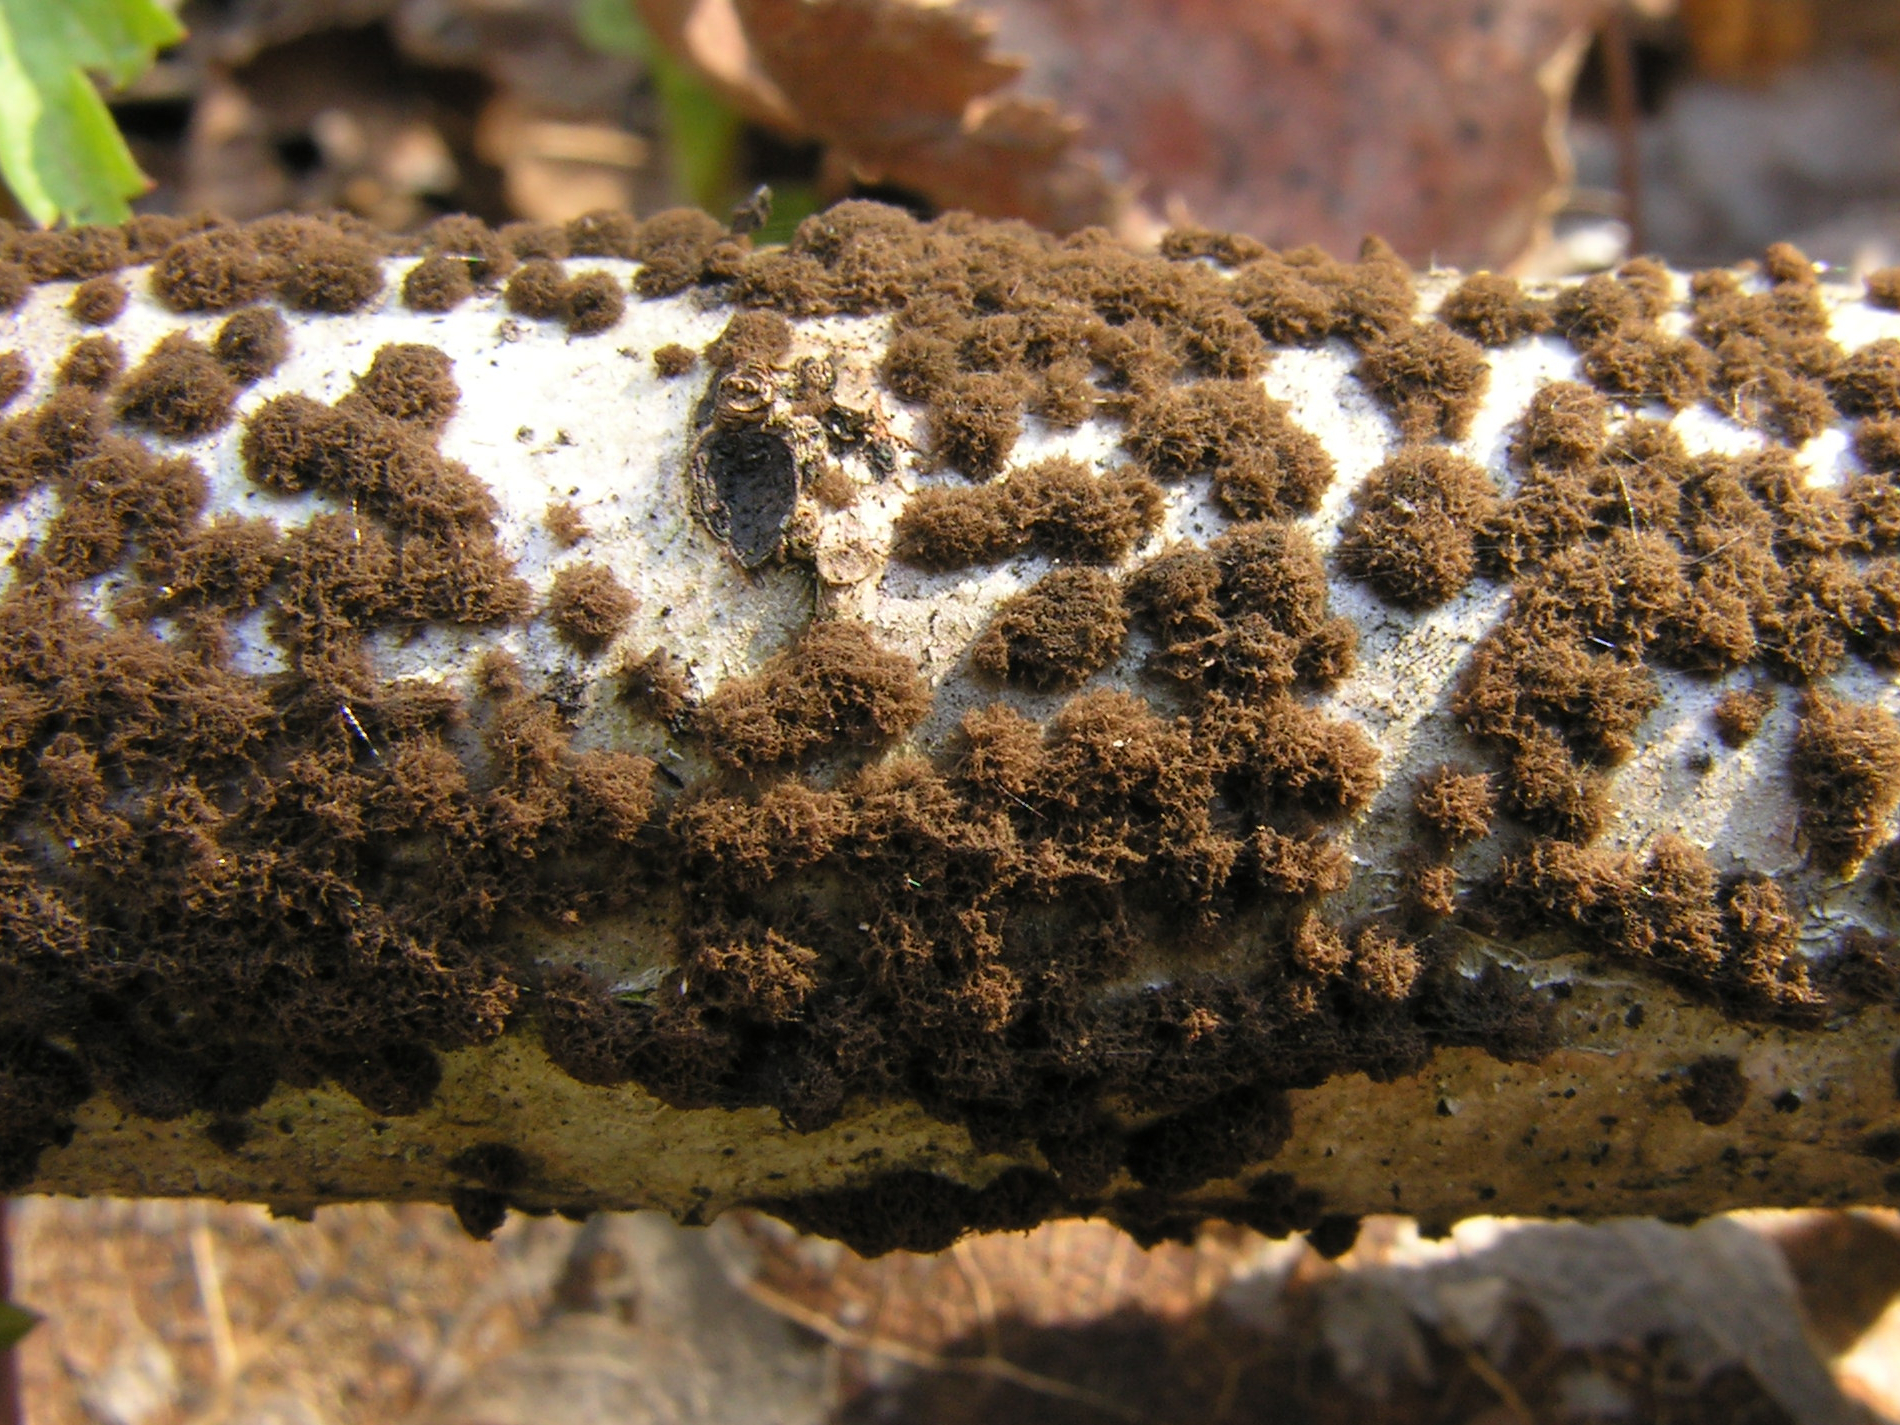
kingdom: Fungi
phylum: Ascomycota
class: Pezizomycetes
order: Pezizales
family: Sarcosomataceae
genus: Conoplea
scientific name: Conoplea olivacea
